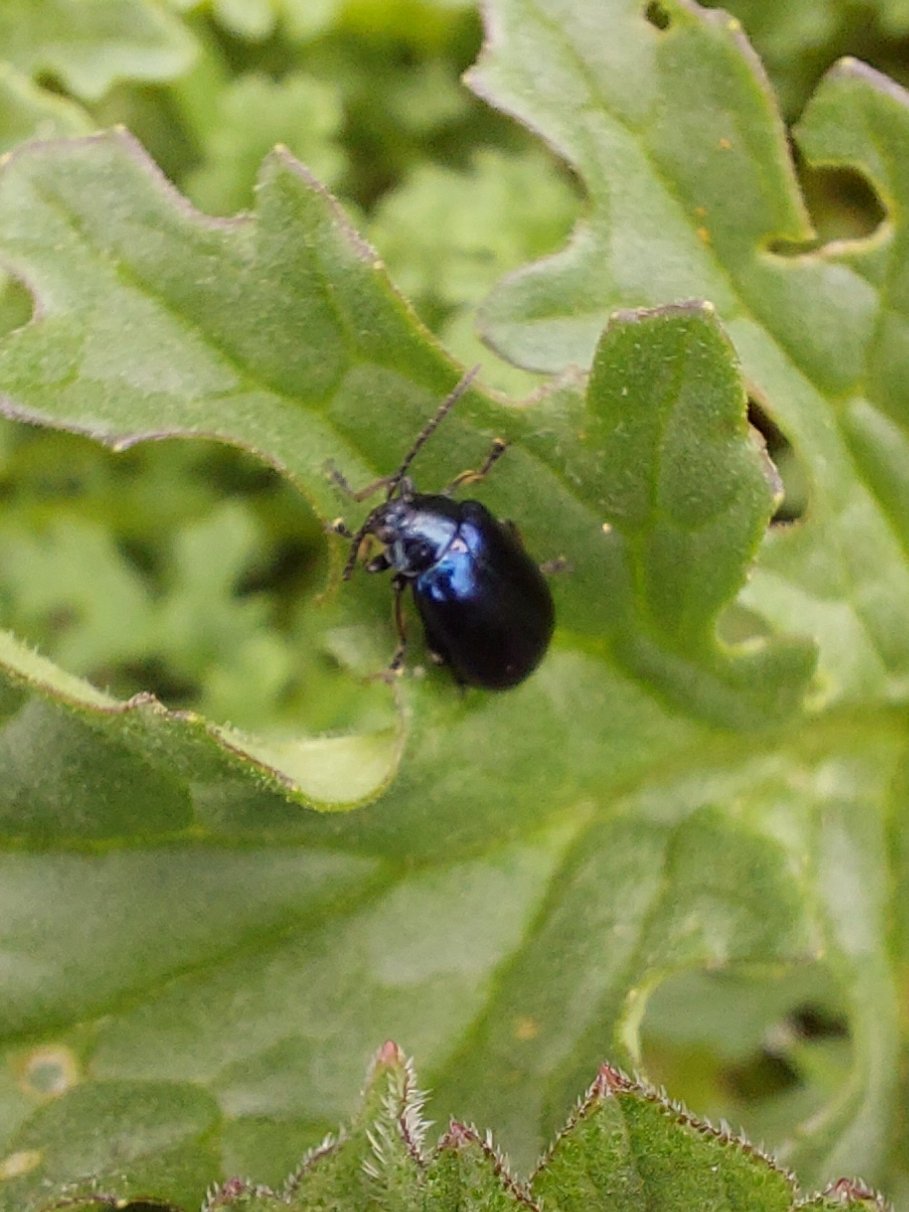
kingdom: Animalia
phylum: Arthropoda
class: Insecta
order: Coleoptera
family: Chrysomelidae
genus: Agelastica
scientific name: Agelastica alni
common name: Alder leaf beetle
